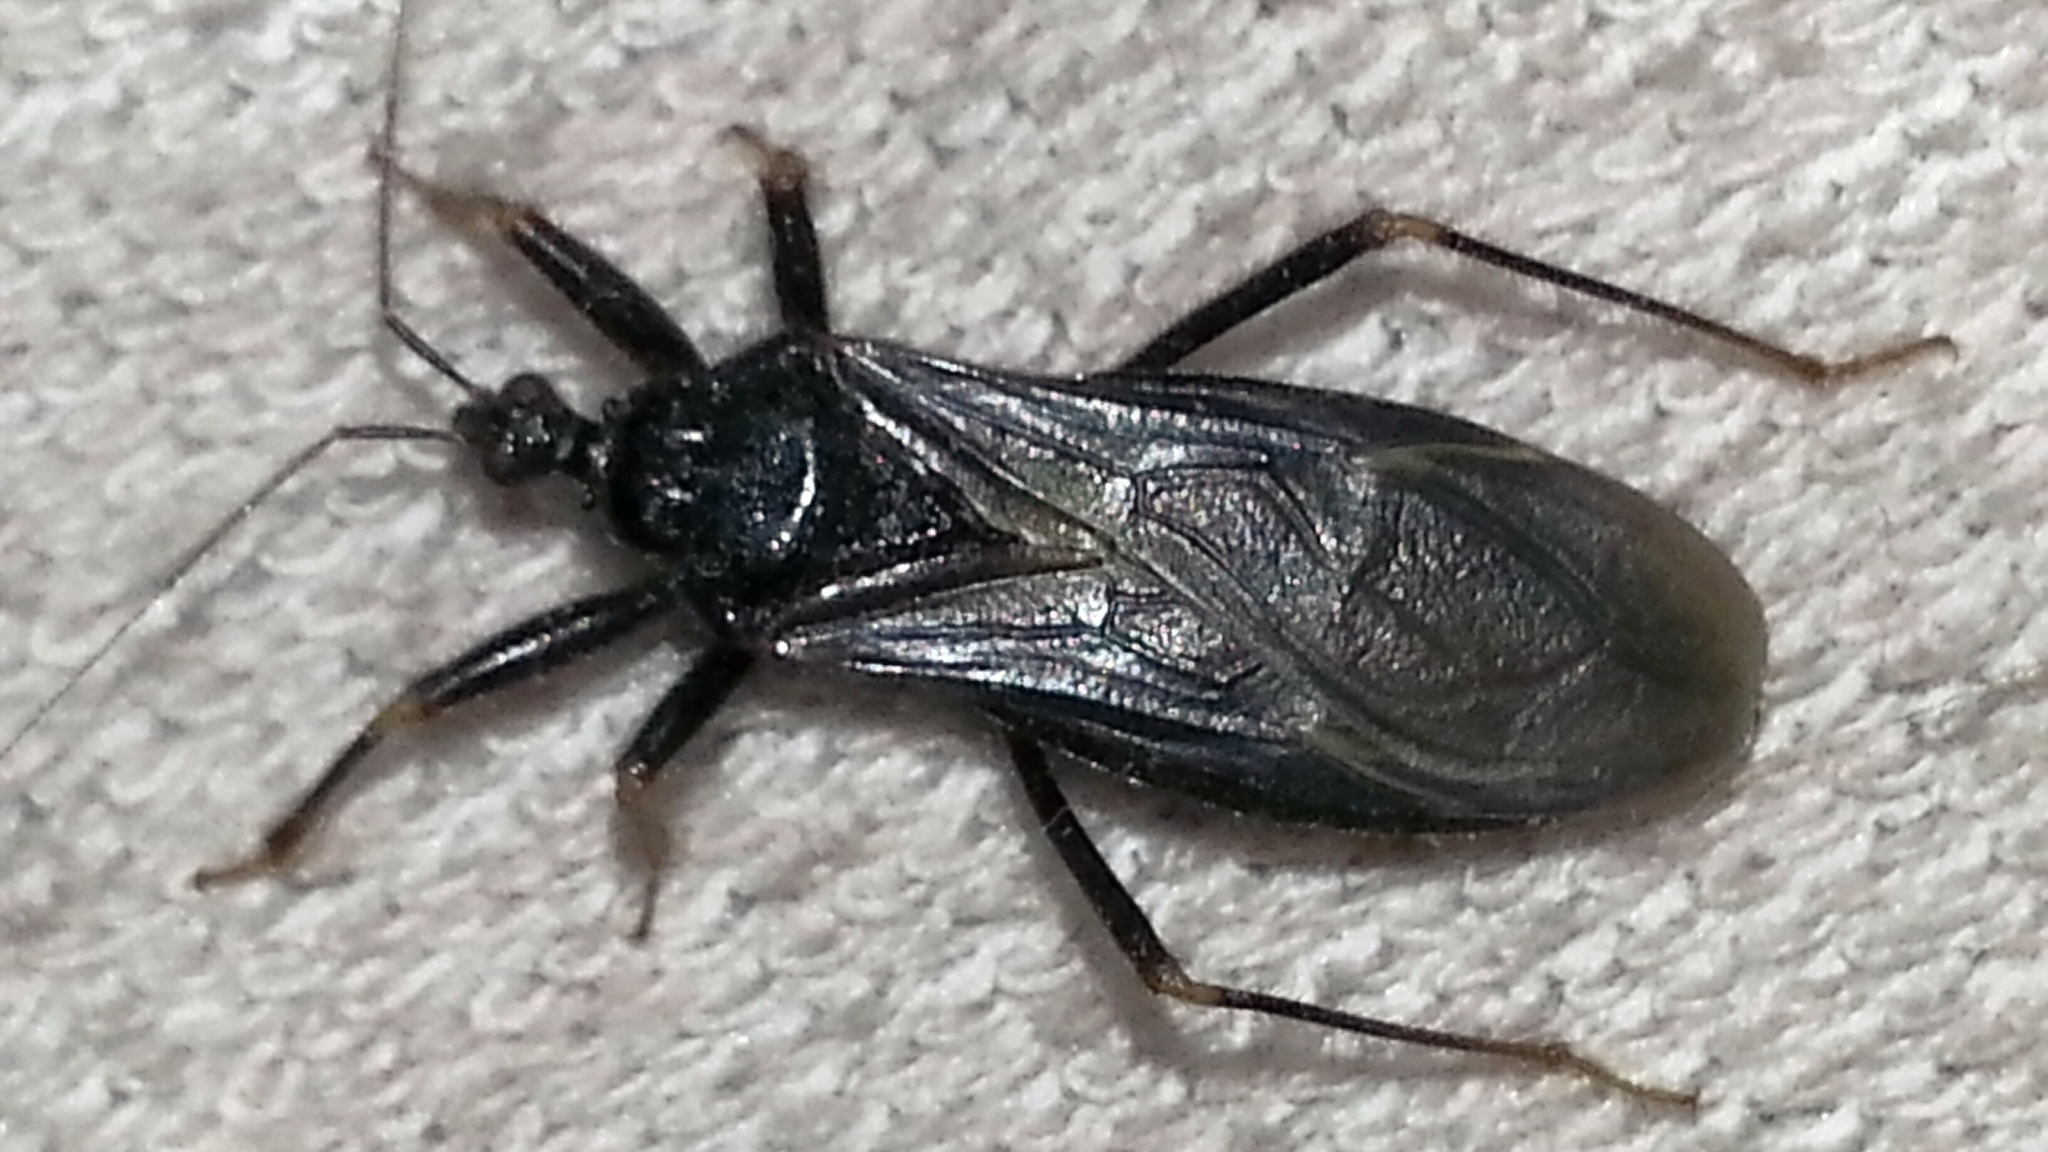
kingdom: Animalia
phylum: Arthropoda
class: Insecta
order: Hemiptera
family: Reduviidae
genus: Reduvius
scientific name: Reduvius personatus
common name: Masked hunter
